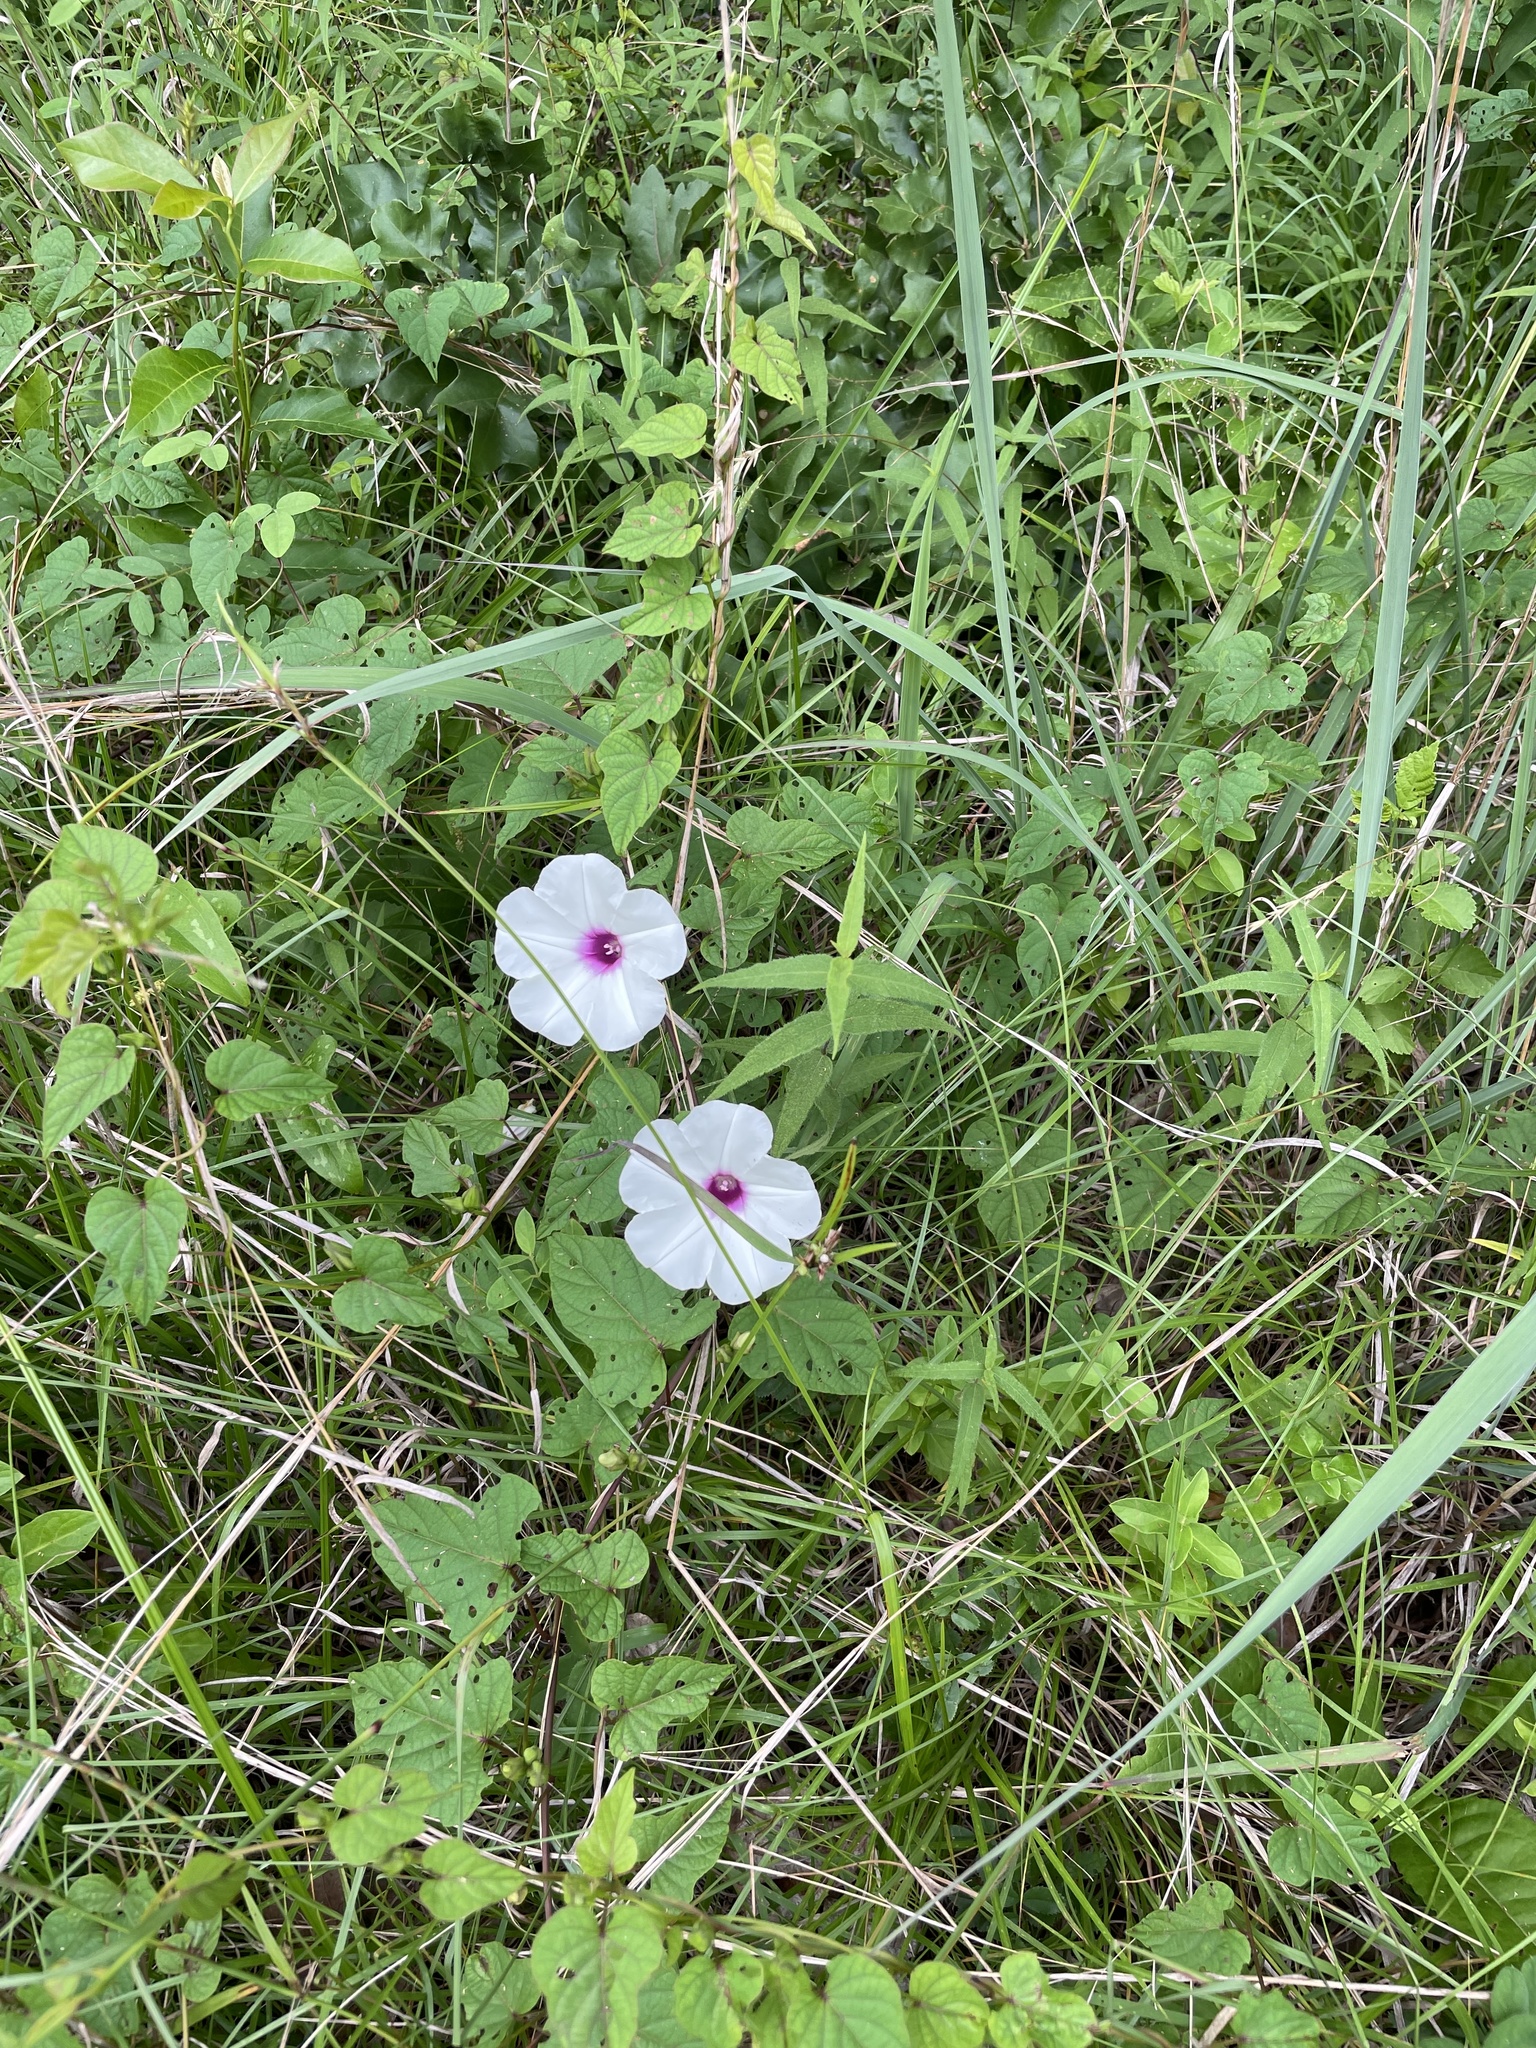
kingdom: Plantae
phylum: Tracheophyta
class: Magnoliopsida
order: Solanales
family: Convolvulaceae
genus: Ipomoea
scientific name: Ipomoea pandurata
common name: Man-of-the-earth
